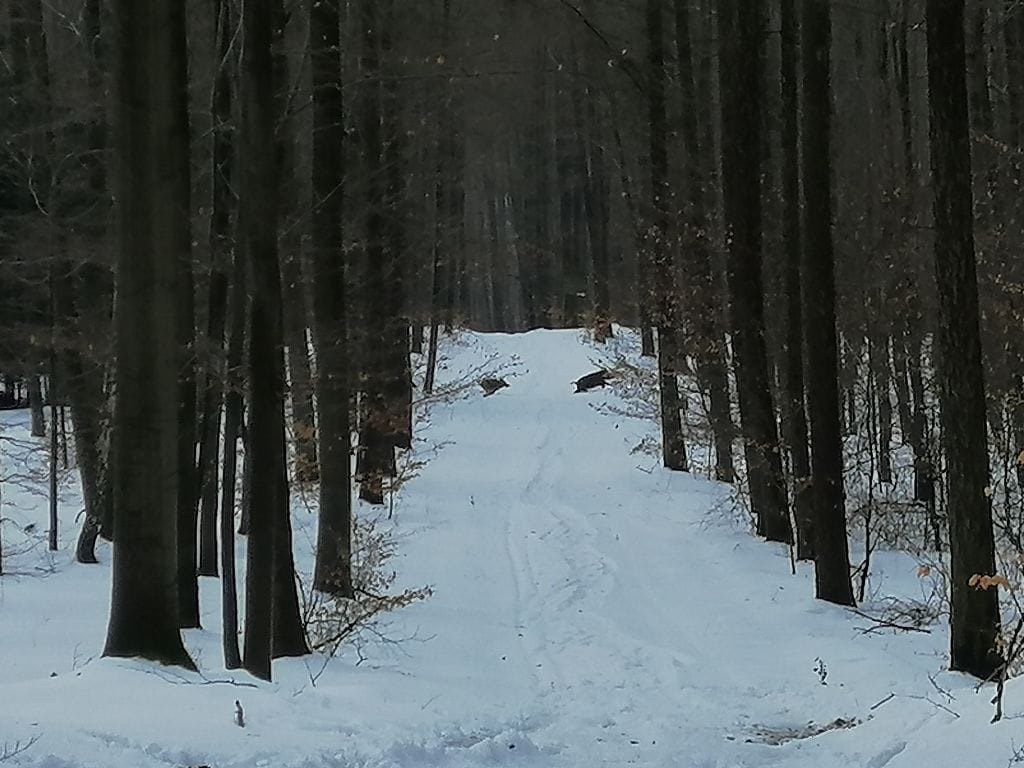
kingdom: Animalia
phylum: Chordata
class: Mammalia
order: Artiodactyla
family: Suidae
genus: Sus
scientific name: Sus scrofa
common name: Wild boar
